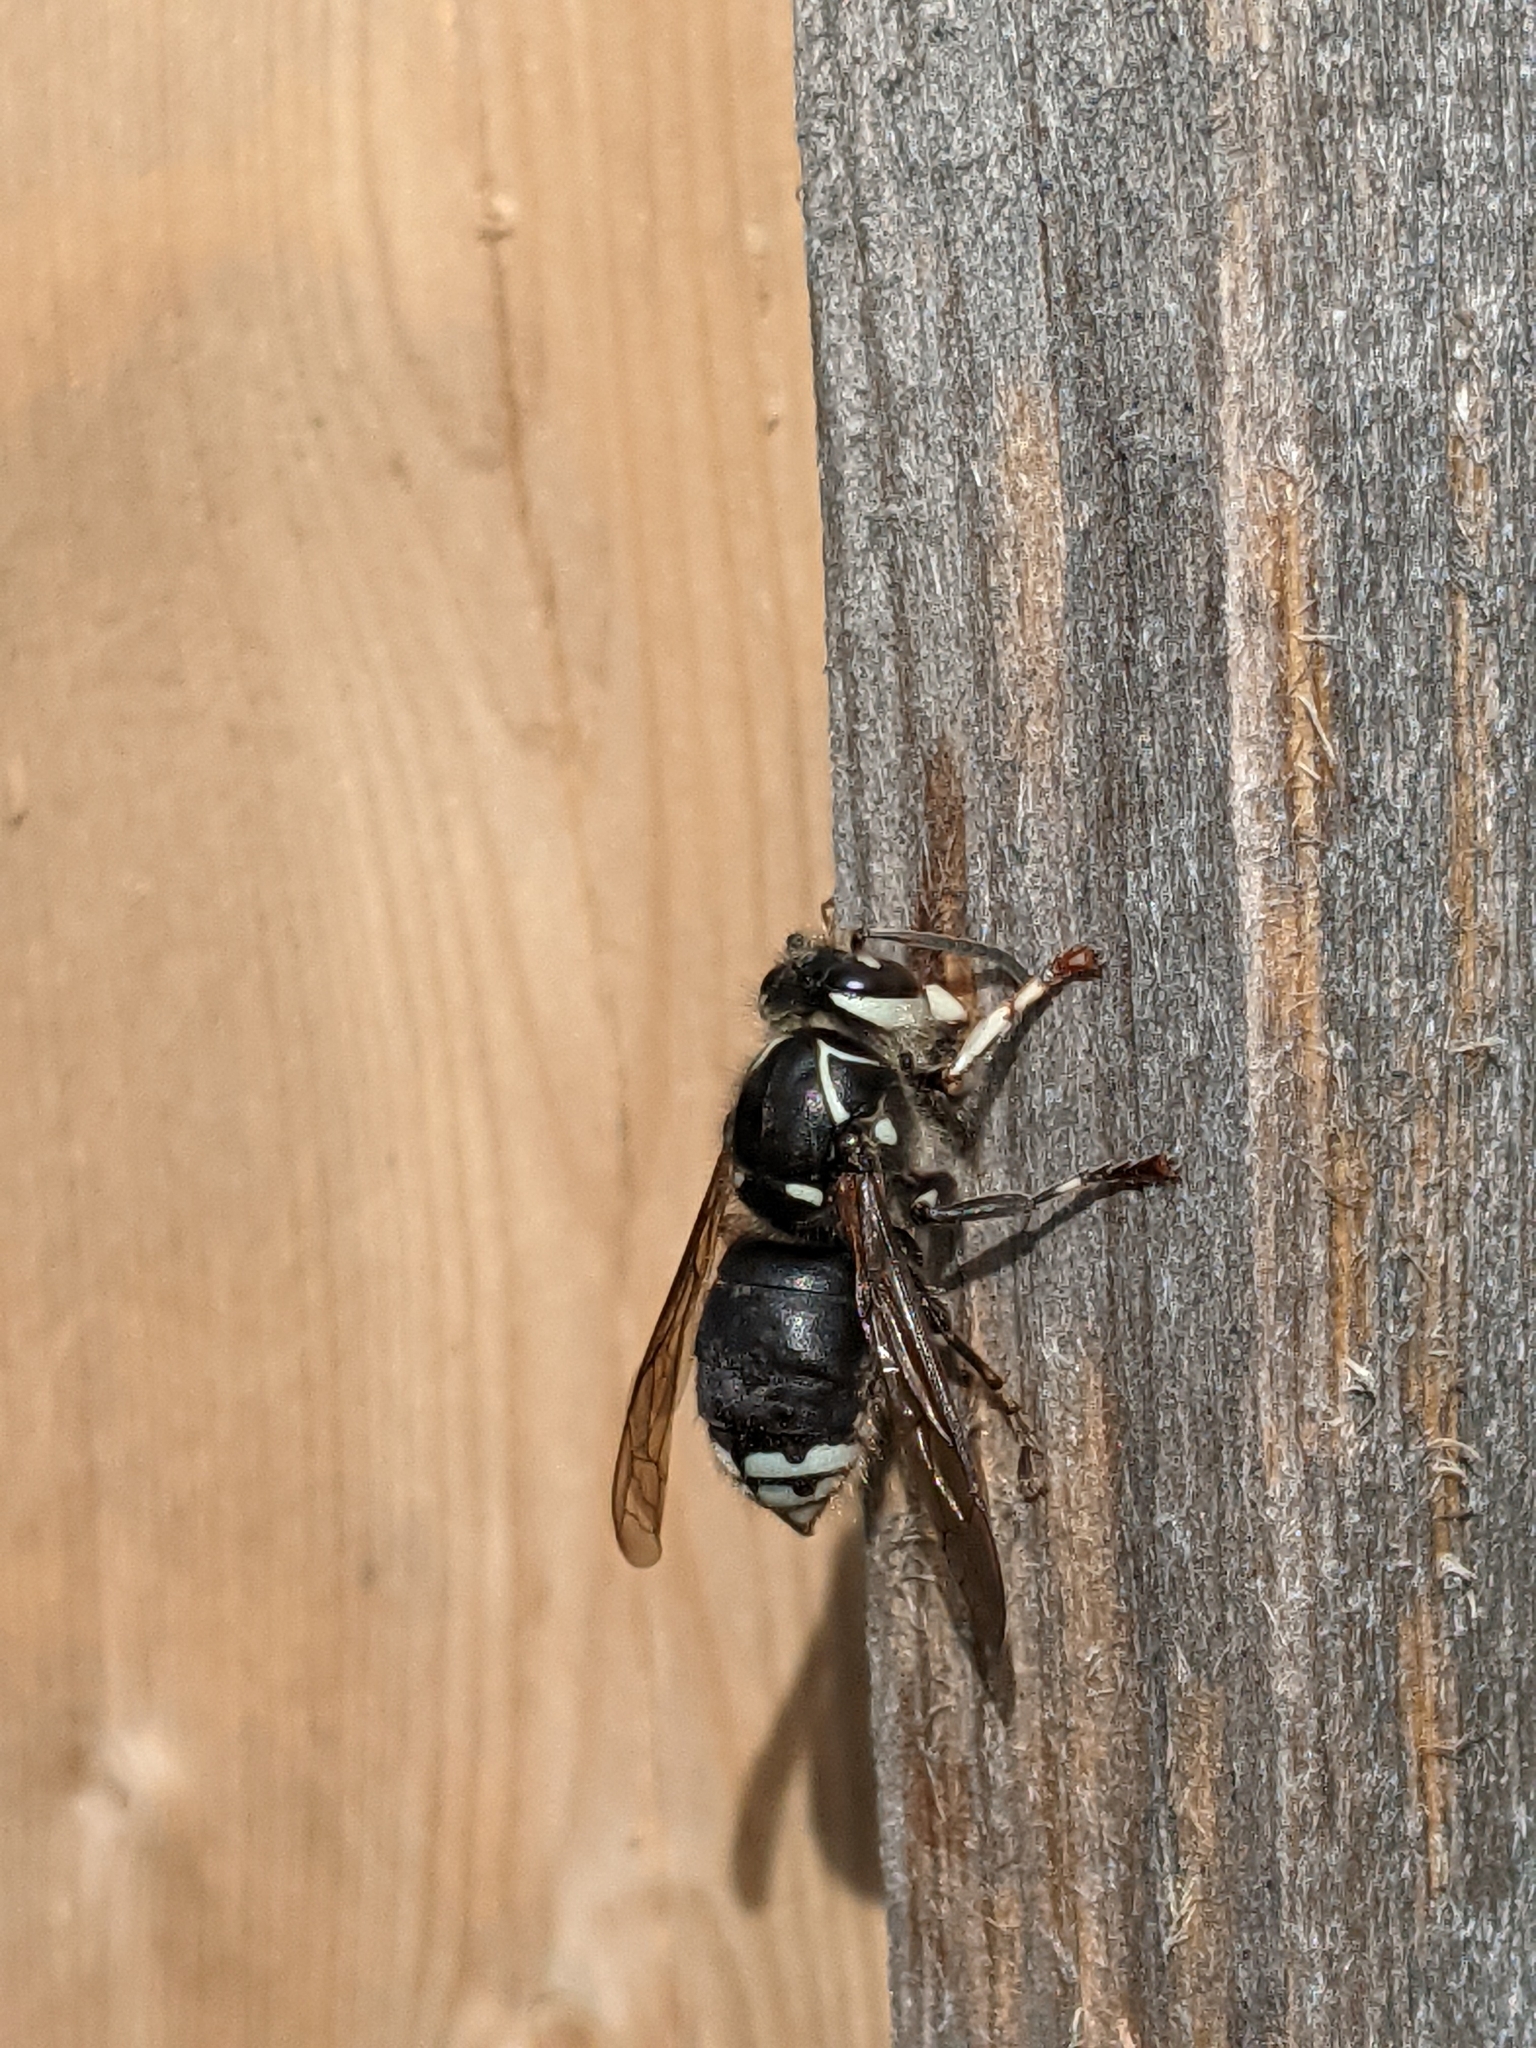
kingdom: Animalia
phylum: Arthropoda
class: Insecta
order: Hymenoptera
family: Vespidae
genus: Dolichovespula
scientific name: Dolichovespula maculata
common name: Bald-faced hornet
